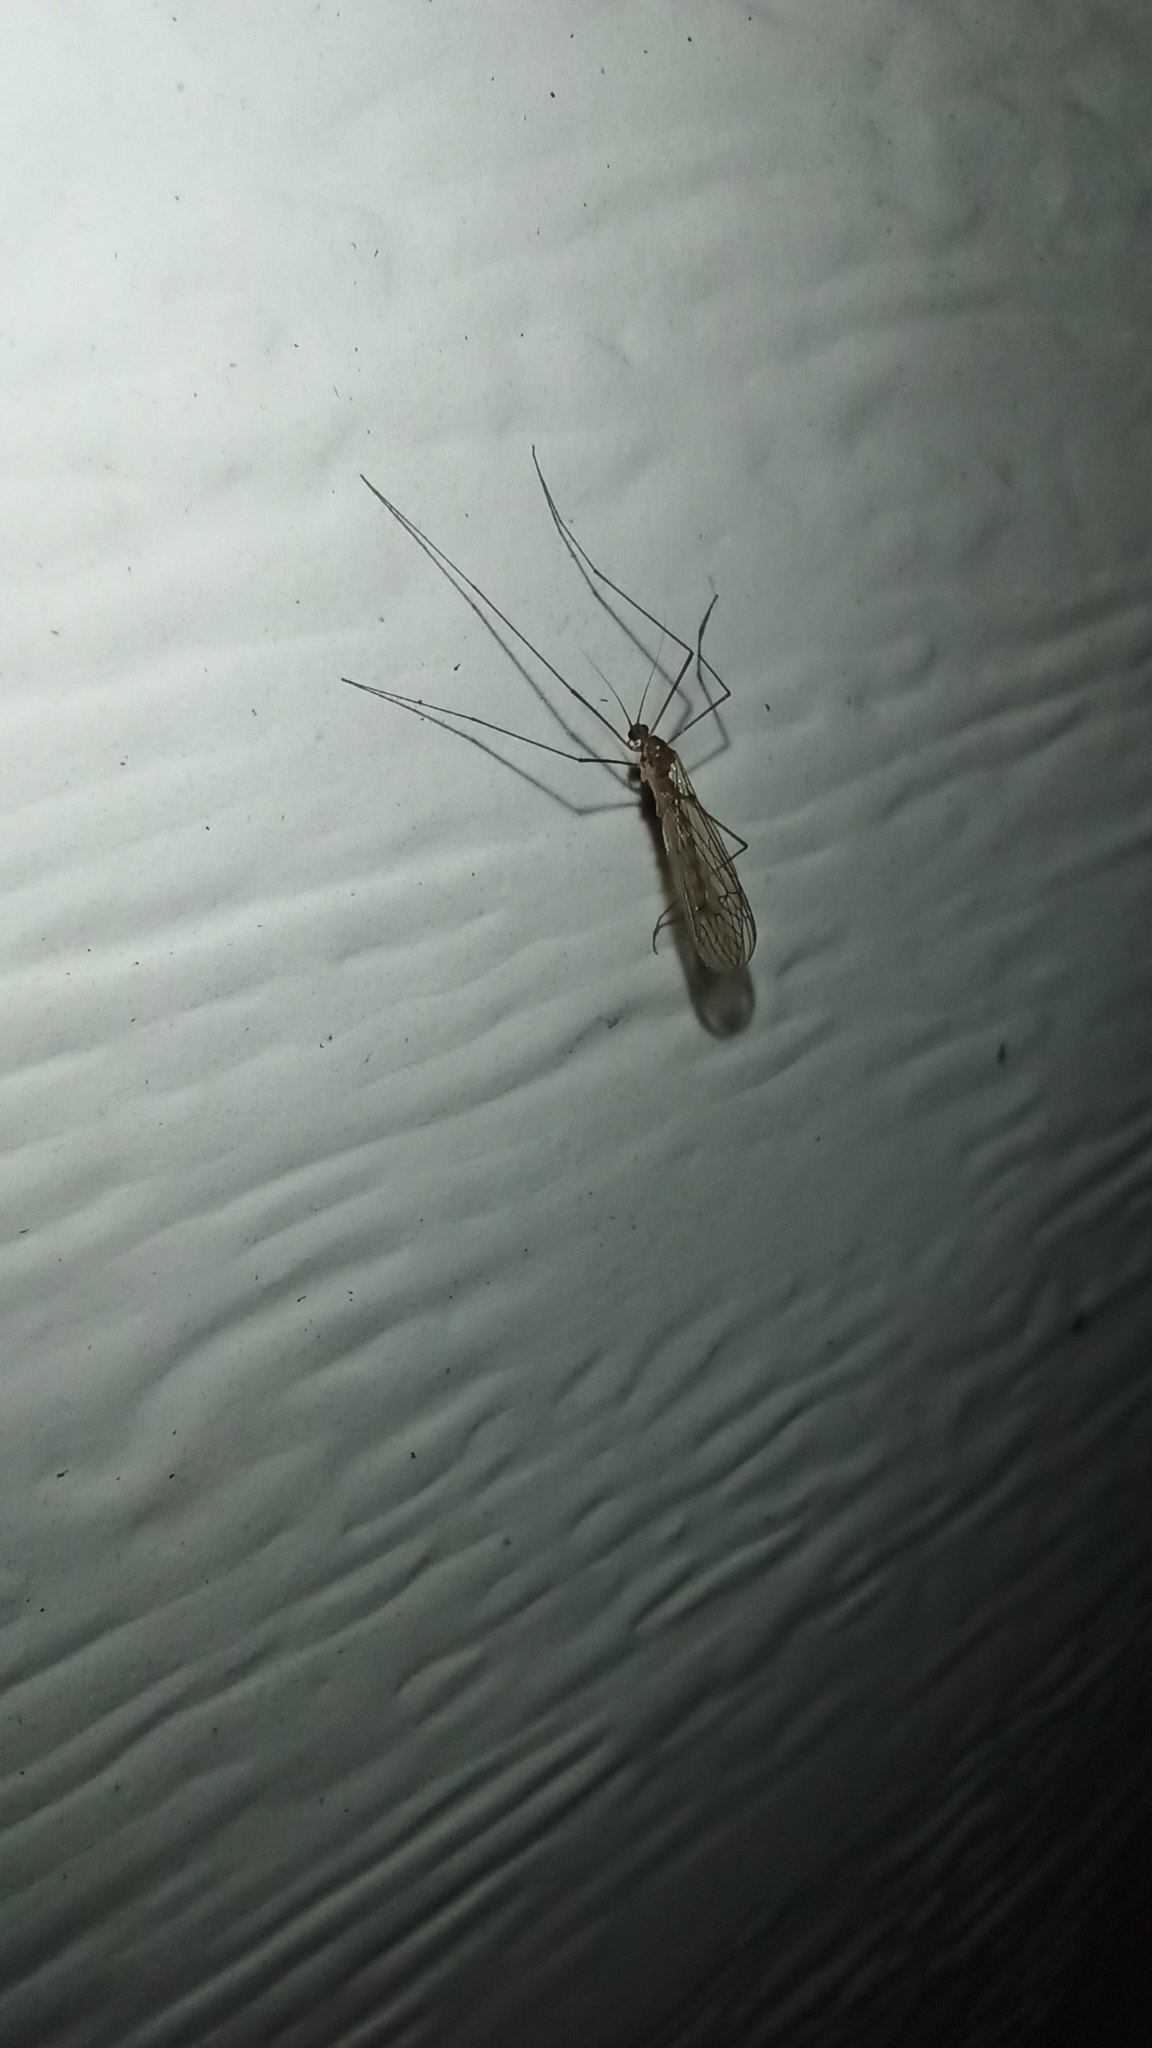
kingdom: Animalia
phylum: Arthropoda
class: Insecta
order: Diptera
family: Trichoceridae
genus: Trichocera
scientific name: Trichocera annulata
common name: Winter gnat
